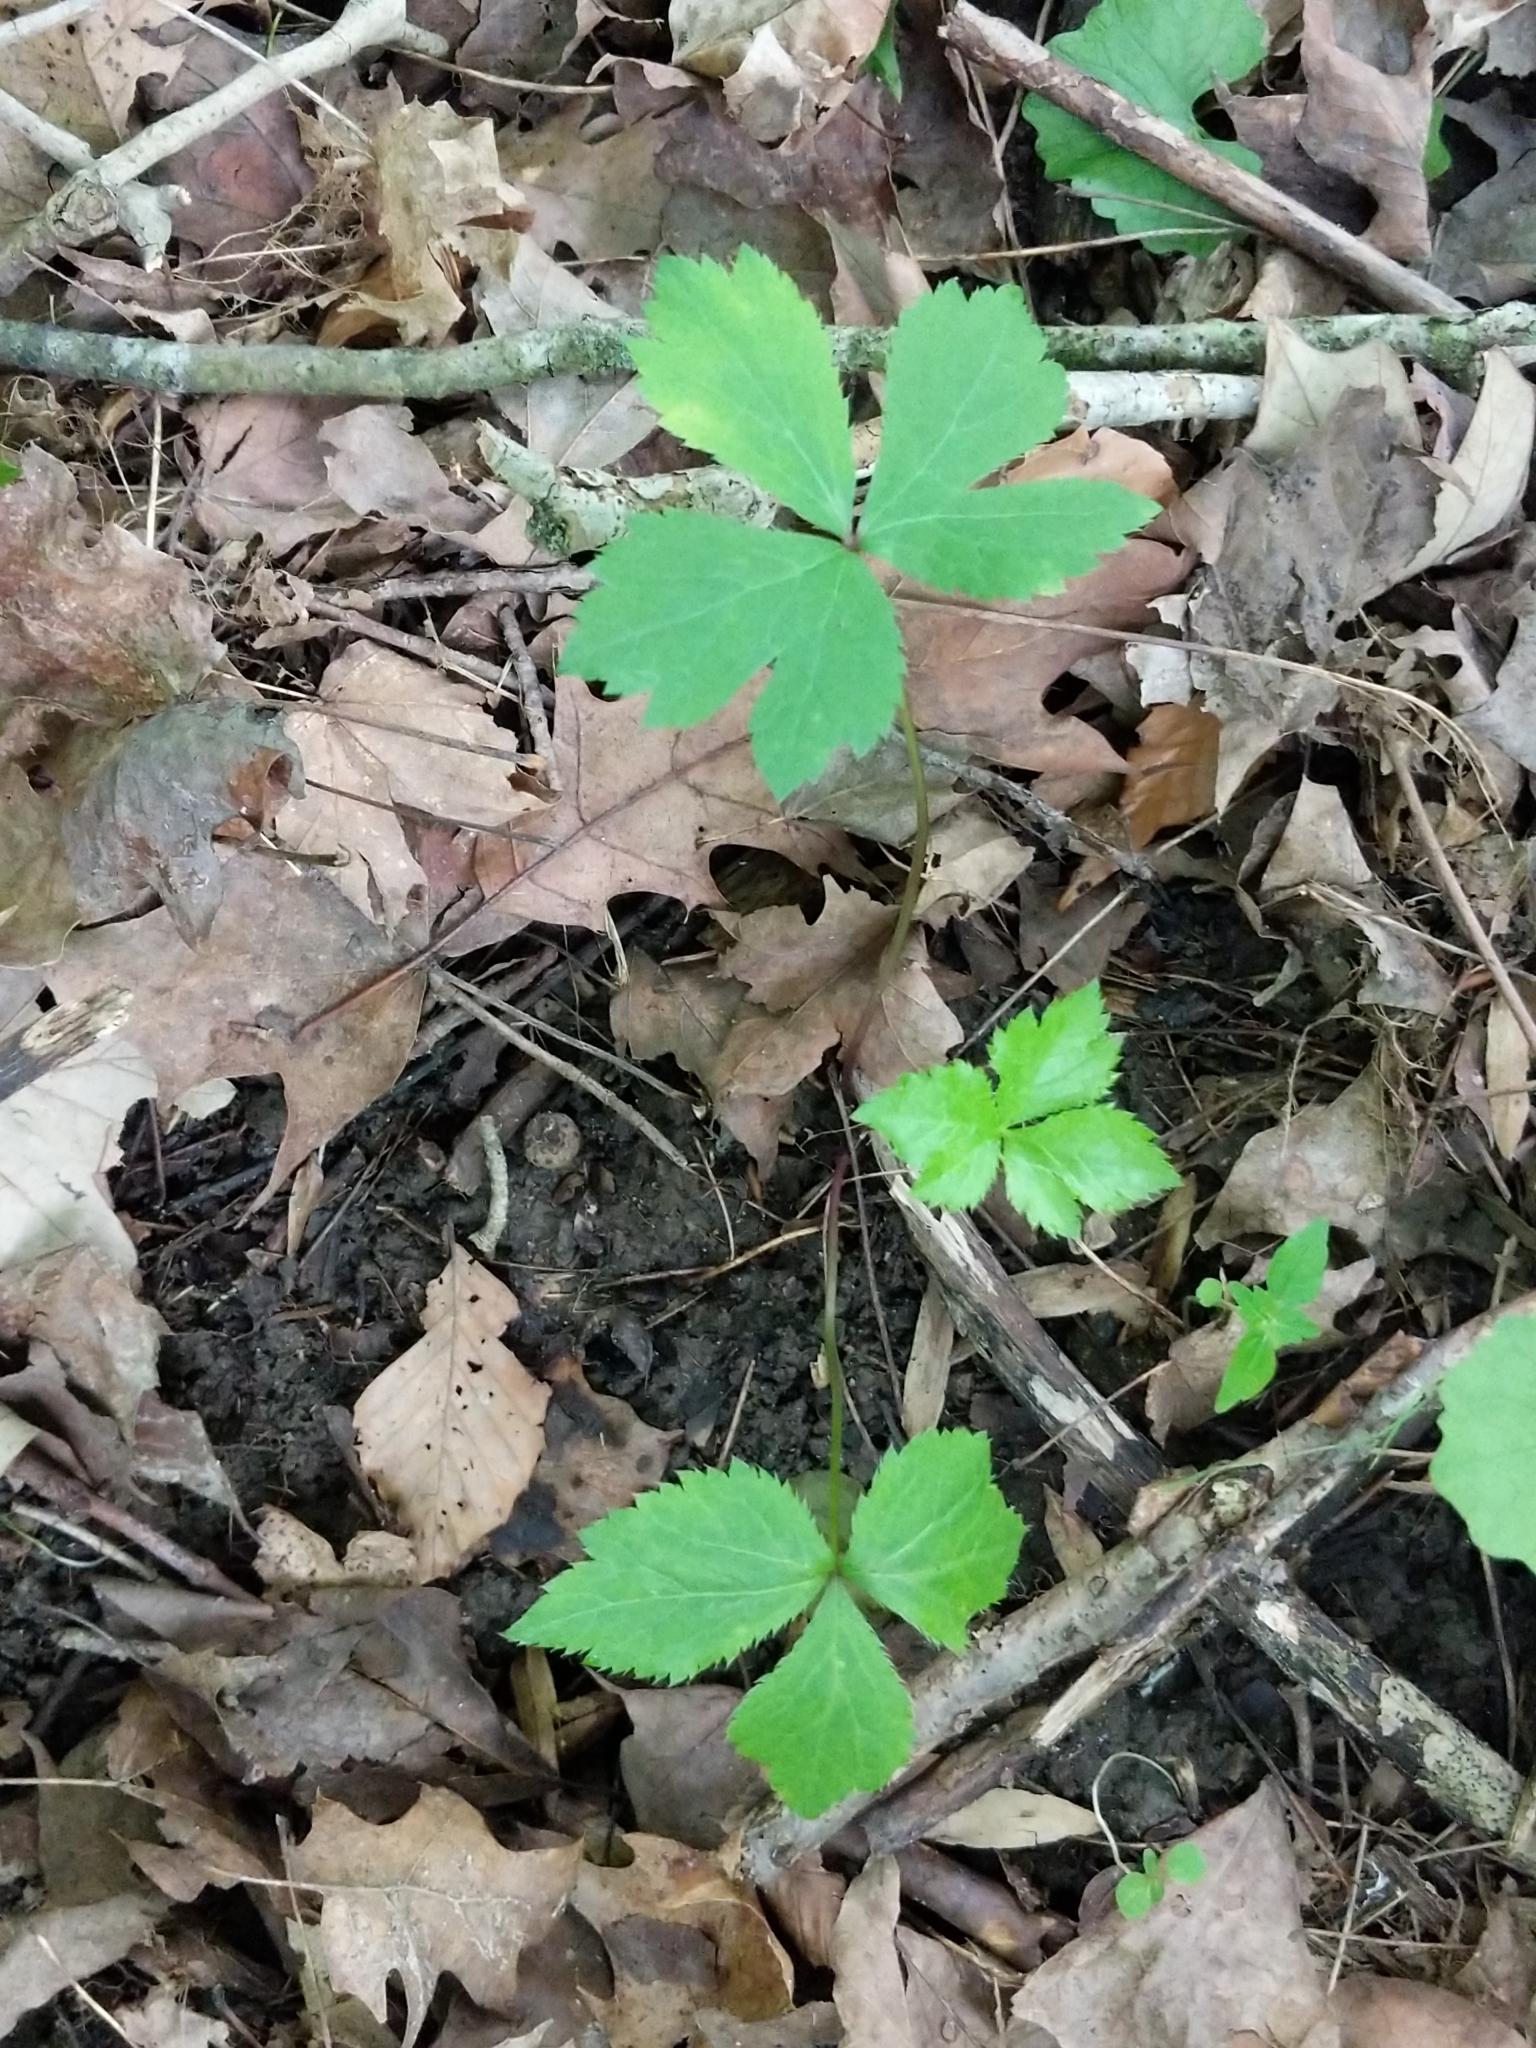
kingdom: Plantae
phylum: Tracheophyta
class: Magnoliopsida
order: Apiales
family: Apiaceae
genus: Sanicula
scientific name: Sanicula trifoliata
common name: Beaked sanicle
